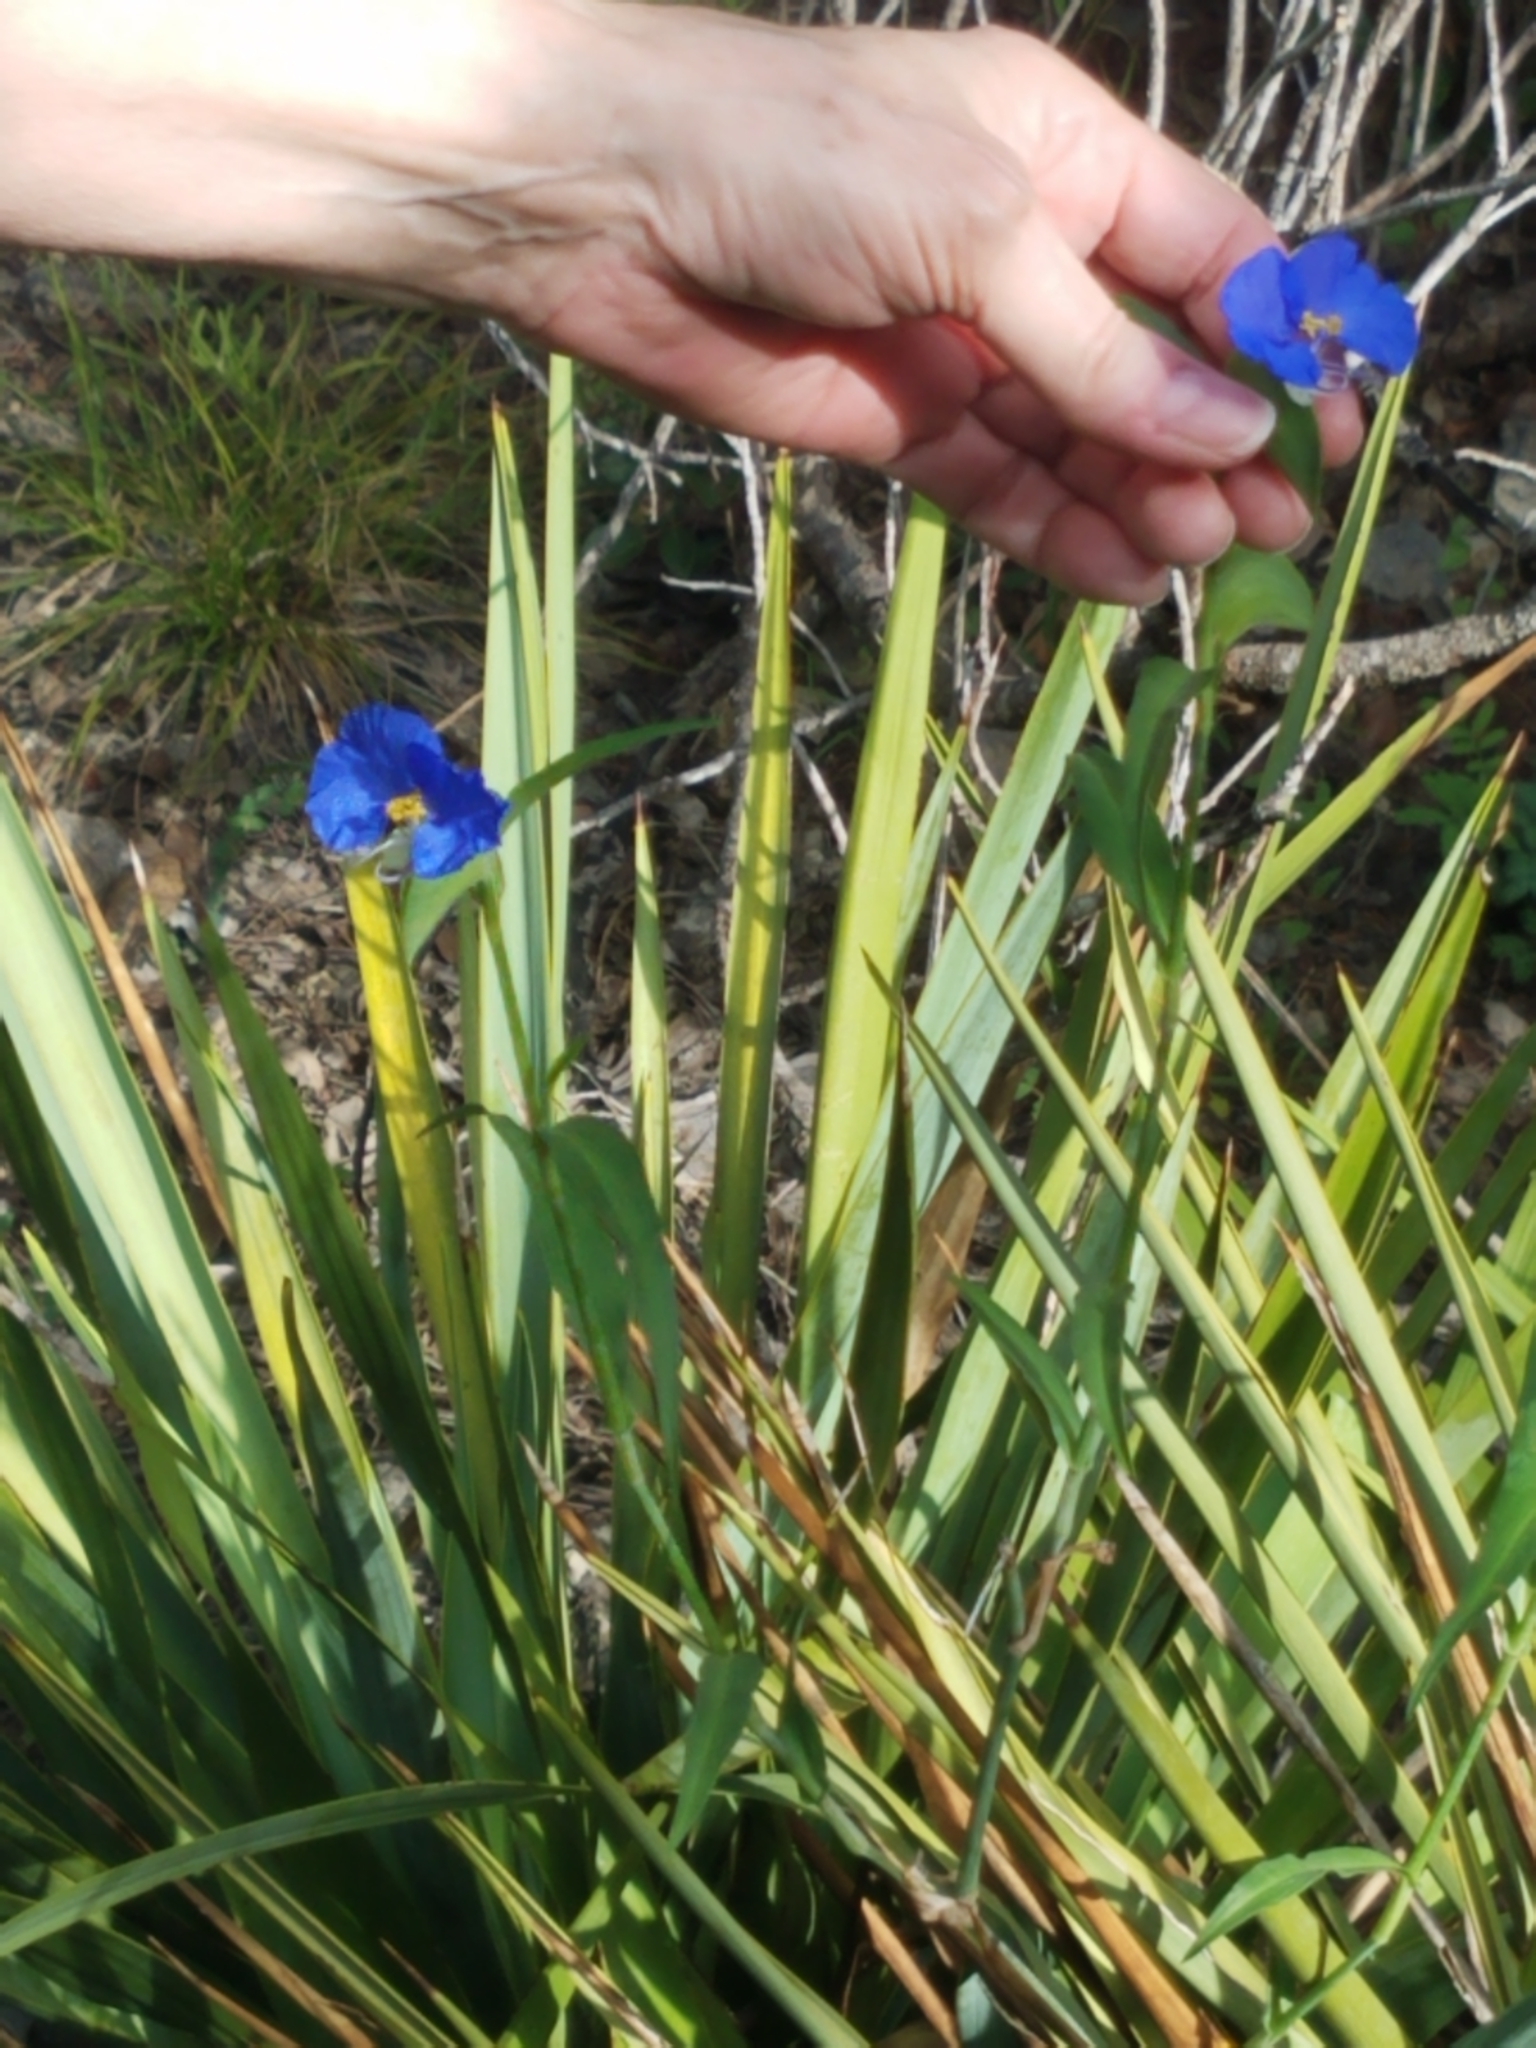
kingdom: Plantae
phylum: Tracheophyta
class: Liliopsida
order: Commelinales
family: Commelinaceae
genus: Commelina
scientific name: Commelina erecta
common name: Blousel blommetjie
